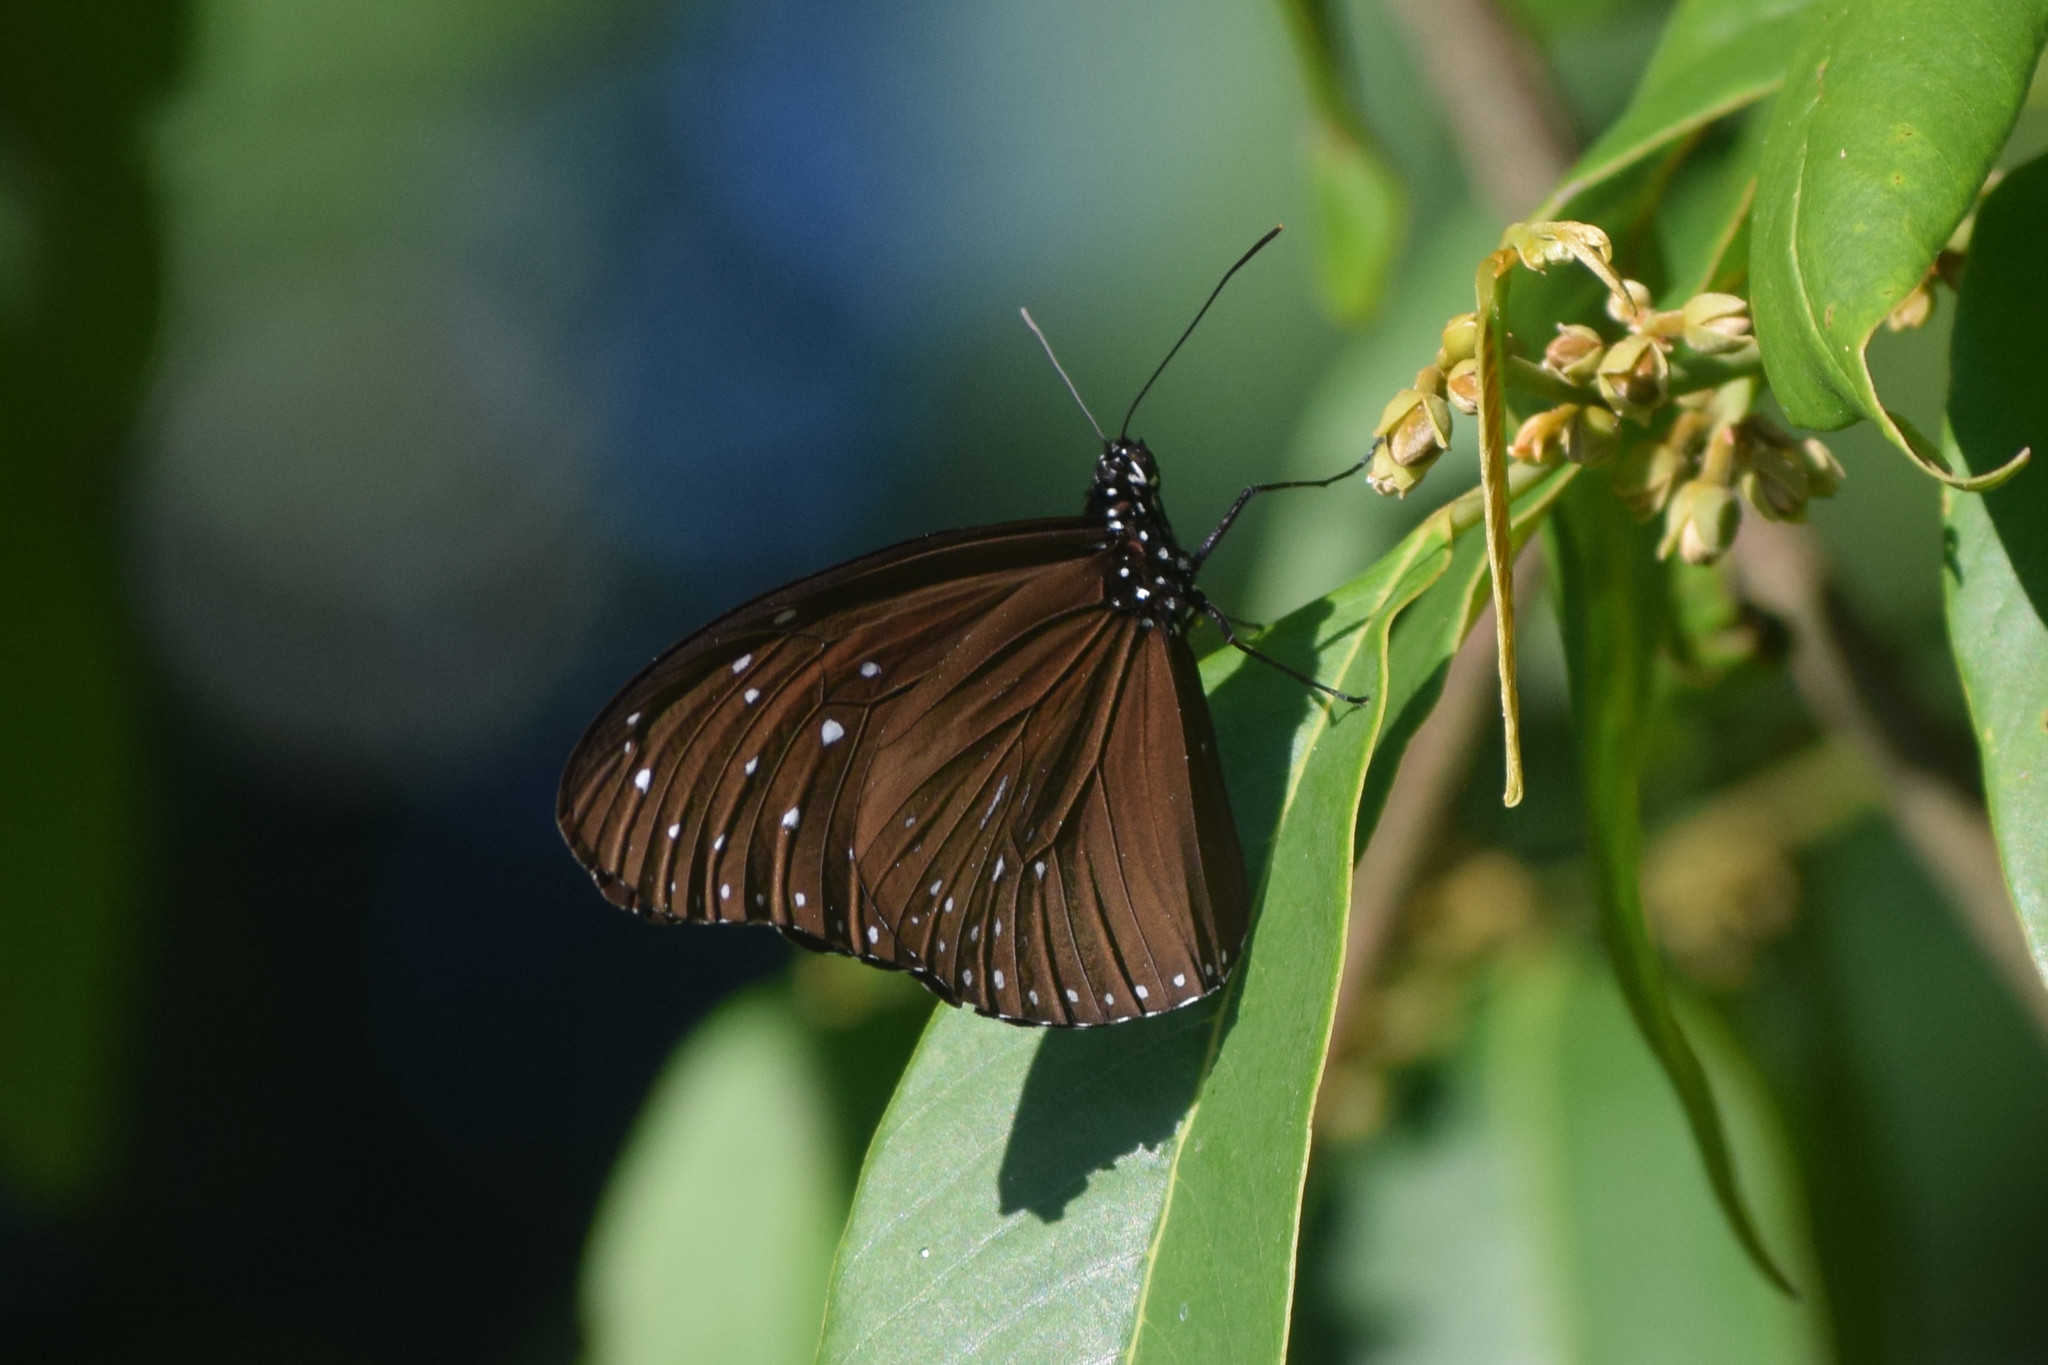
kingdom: Animalia
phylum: Arthropoda
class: Insecta
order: Lepidoptera
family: Nymphalidae
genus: Euploea
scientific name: Euploea midamus
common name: Blue-spotted crow butterfly
